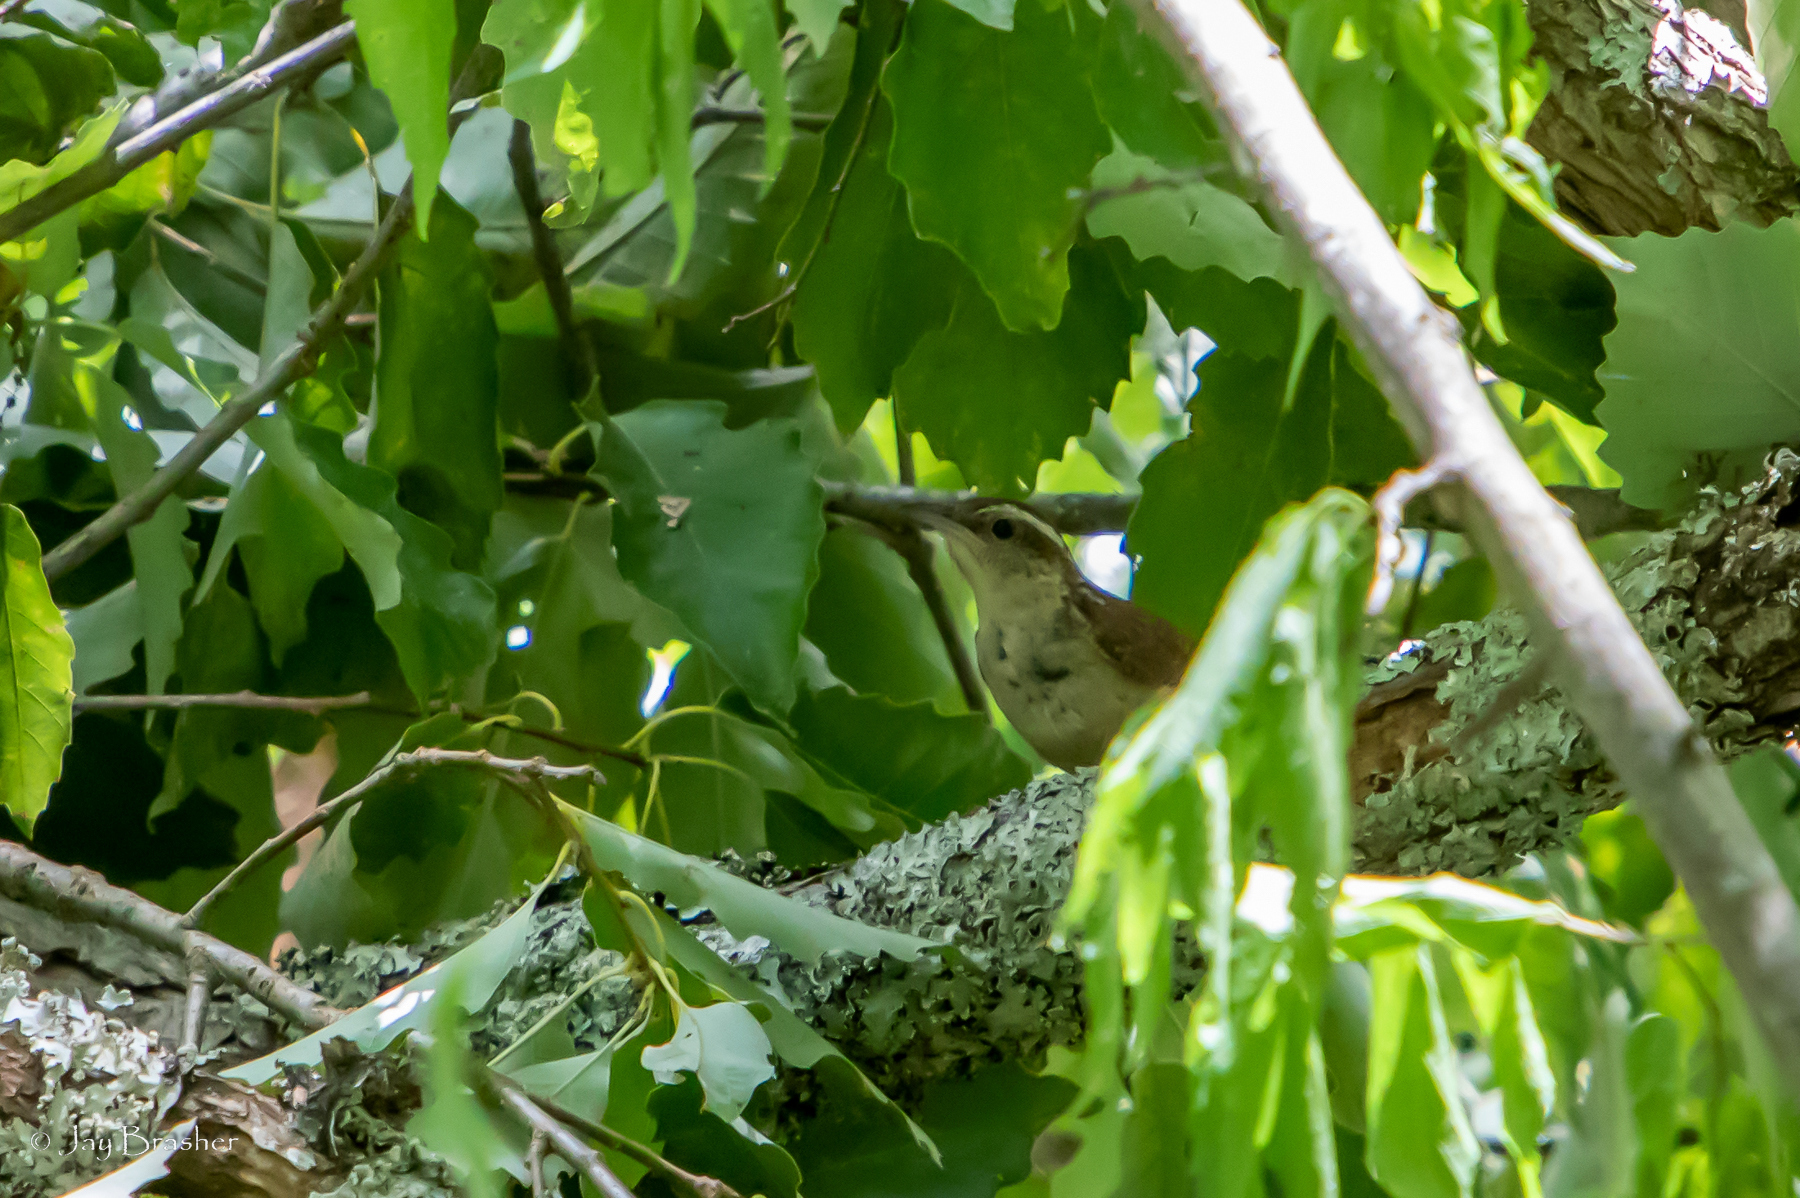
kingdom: Animalia
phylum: Chordata
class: Aves
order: Passeriformes
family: Troglodytidae
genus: Thryothorus
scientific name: Thryothorus ludovicianus
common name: Carolina wren
